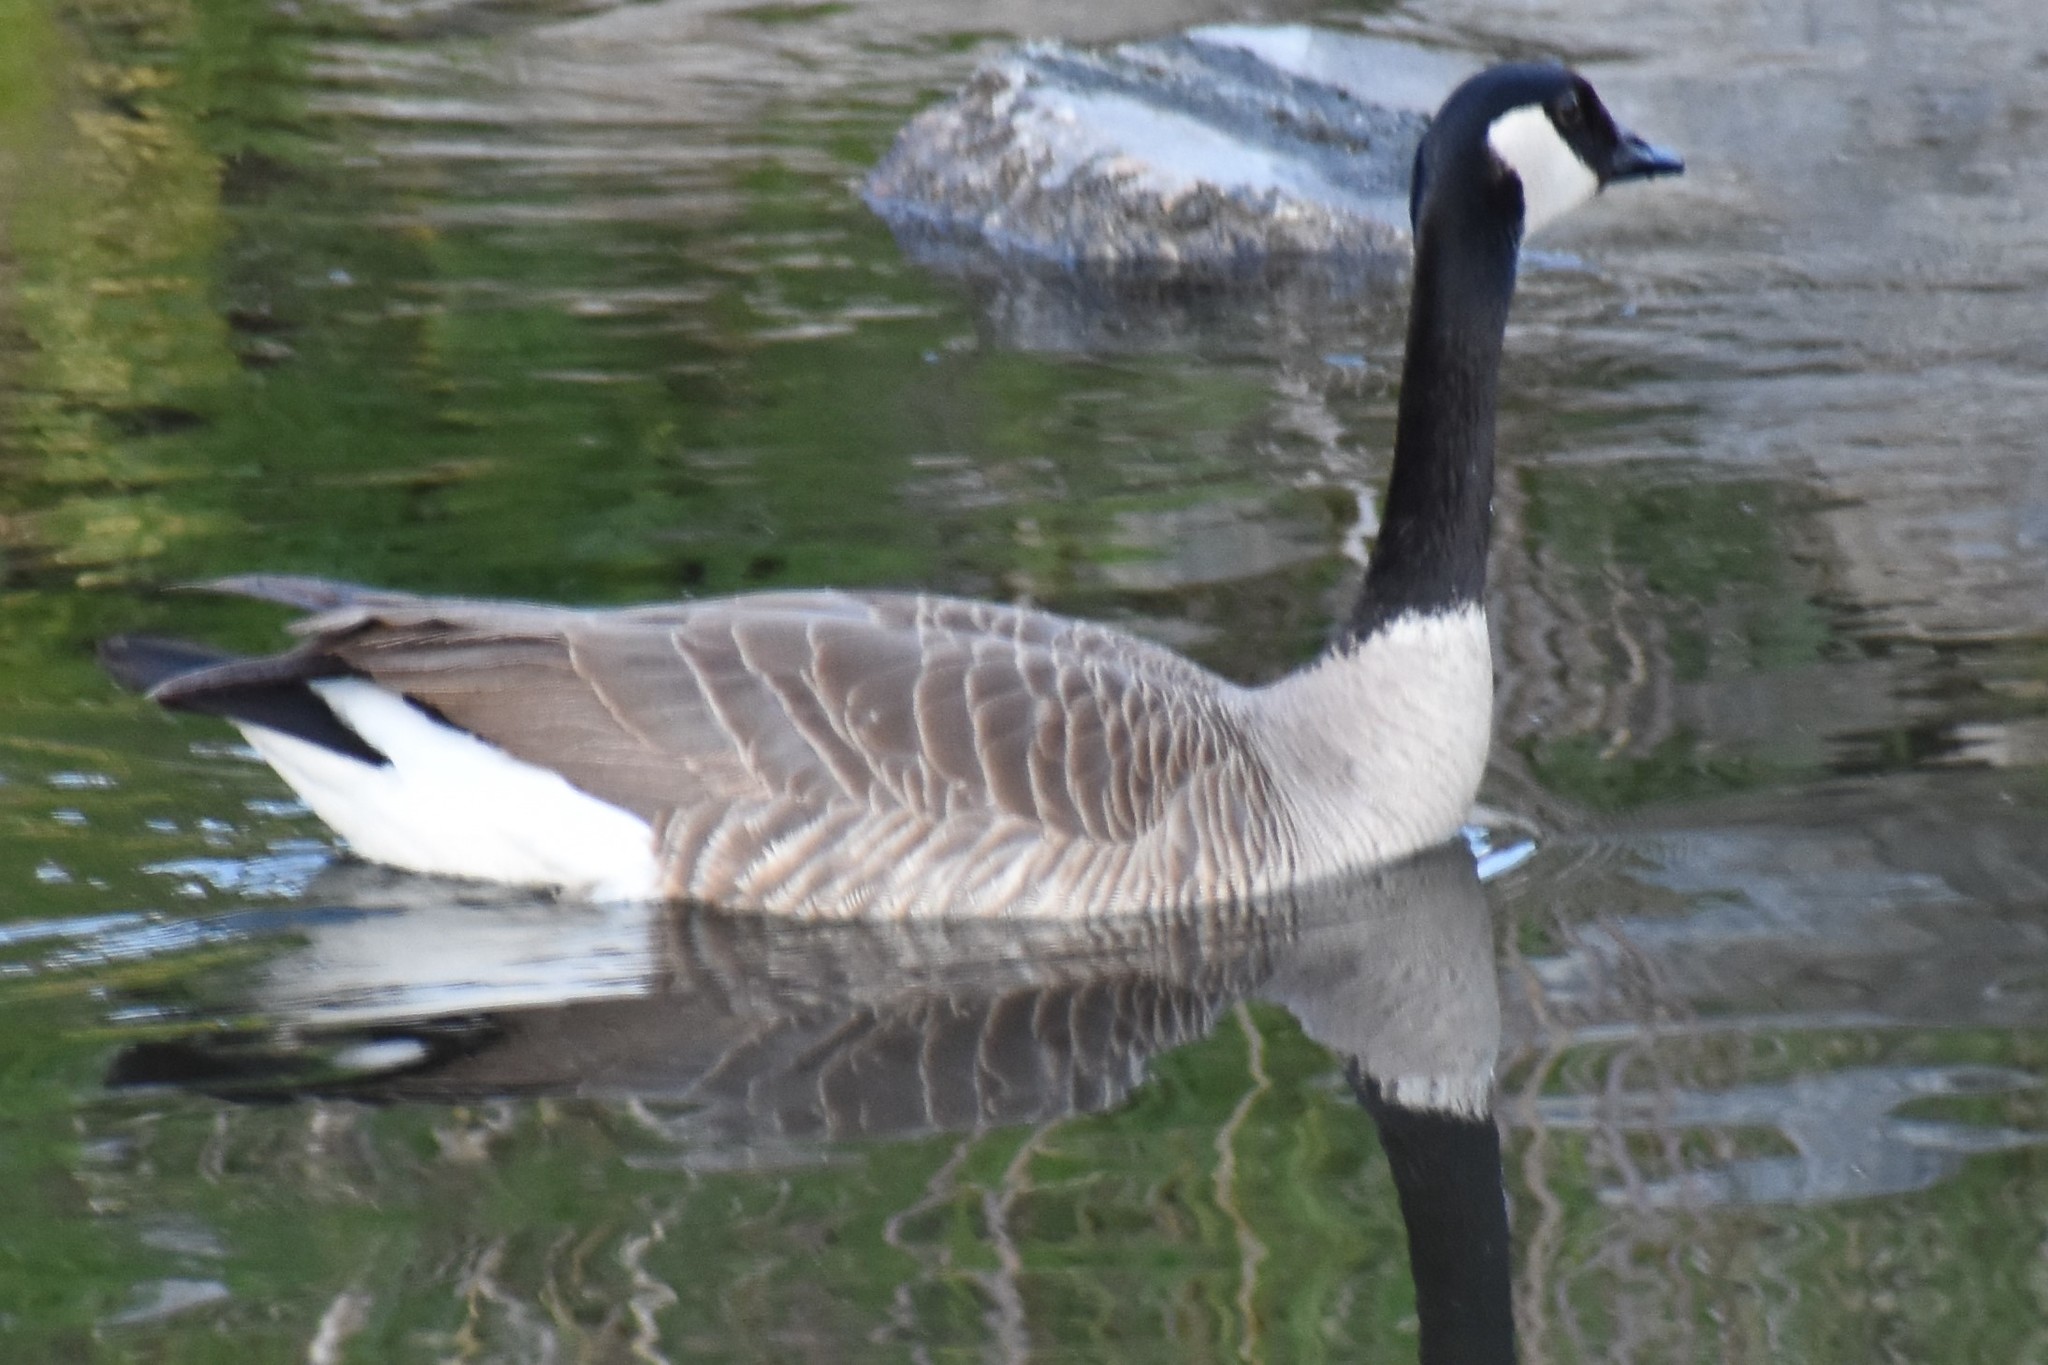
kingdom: Animalia
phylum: Chordata
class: Aves
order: Anseriformes
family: Anatidae
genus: Branta
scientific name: Branta canadensis
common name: Canada goose
